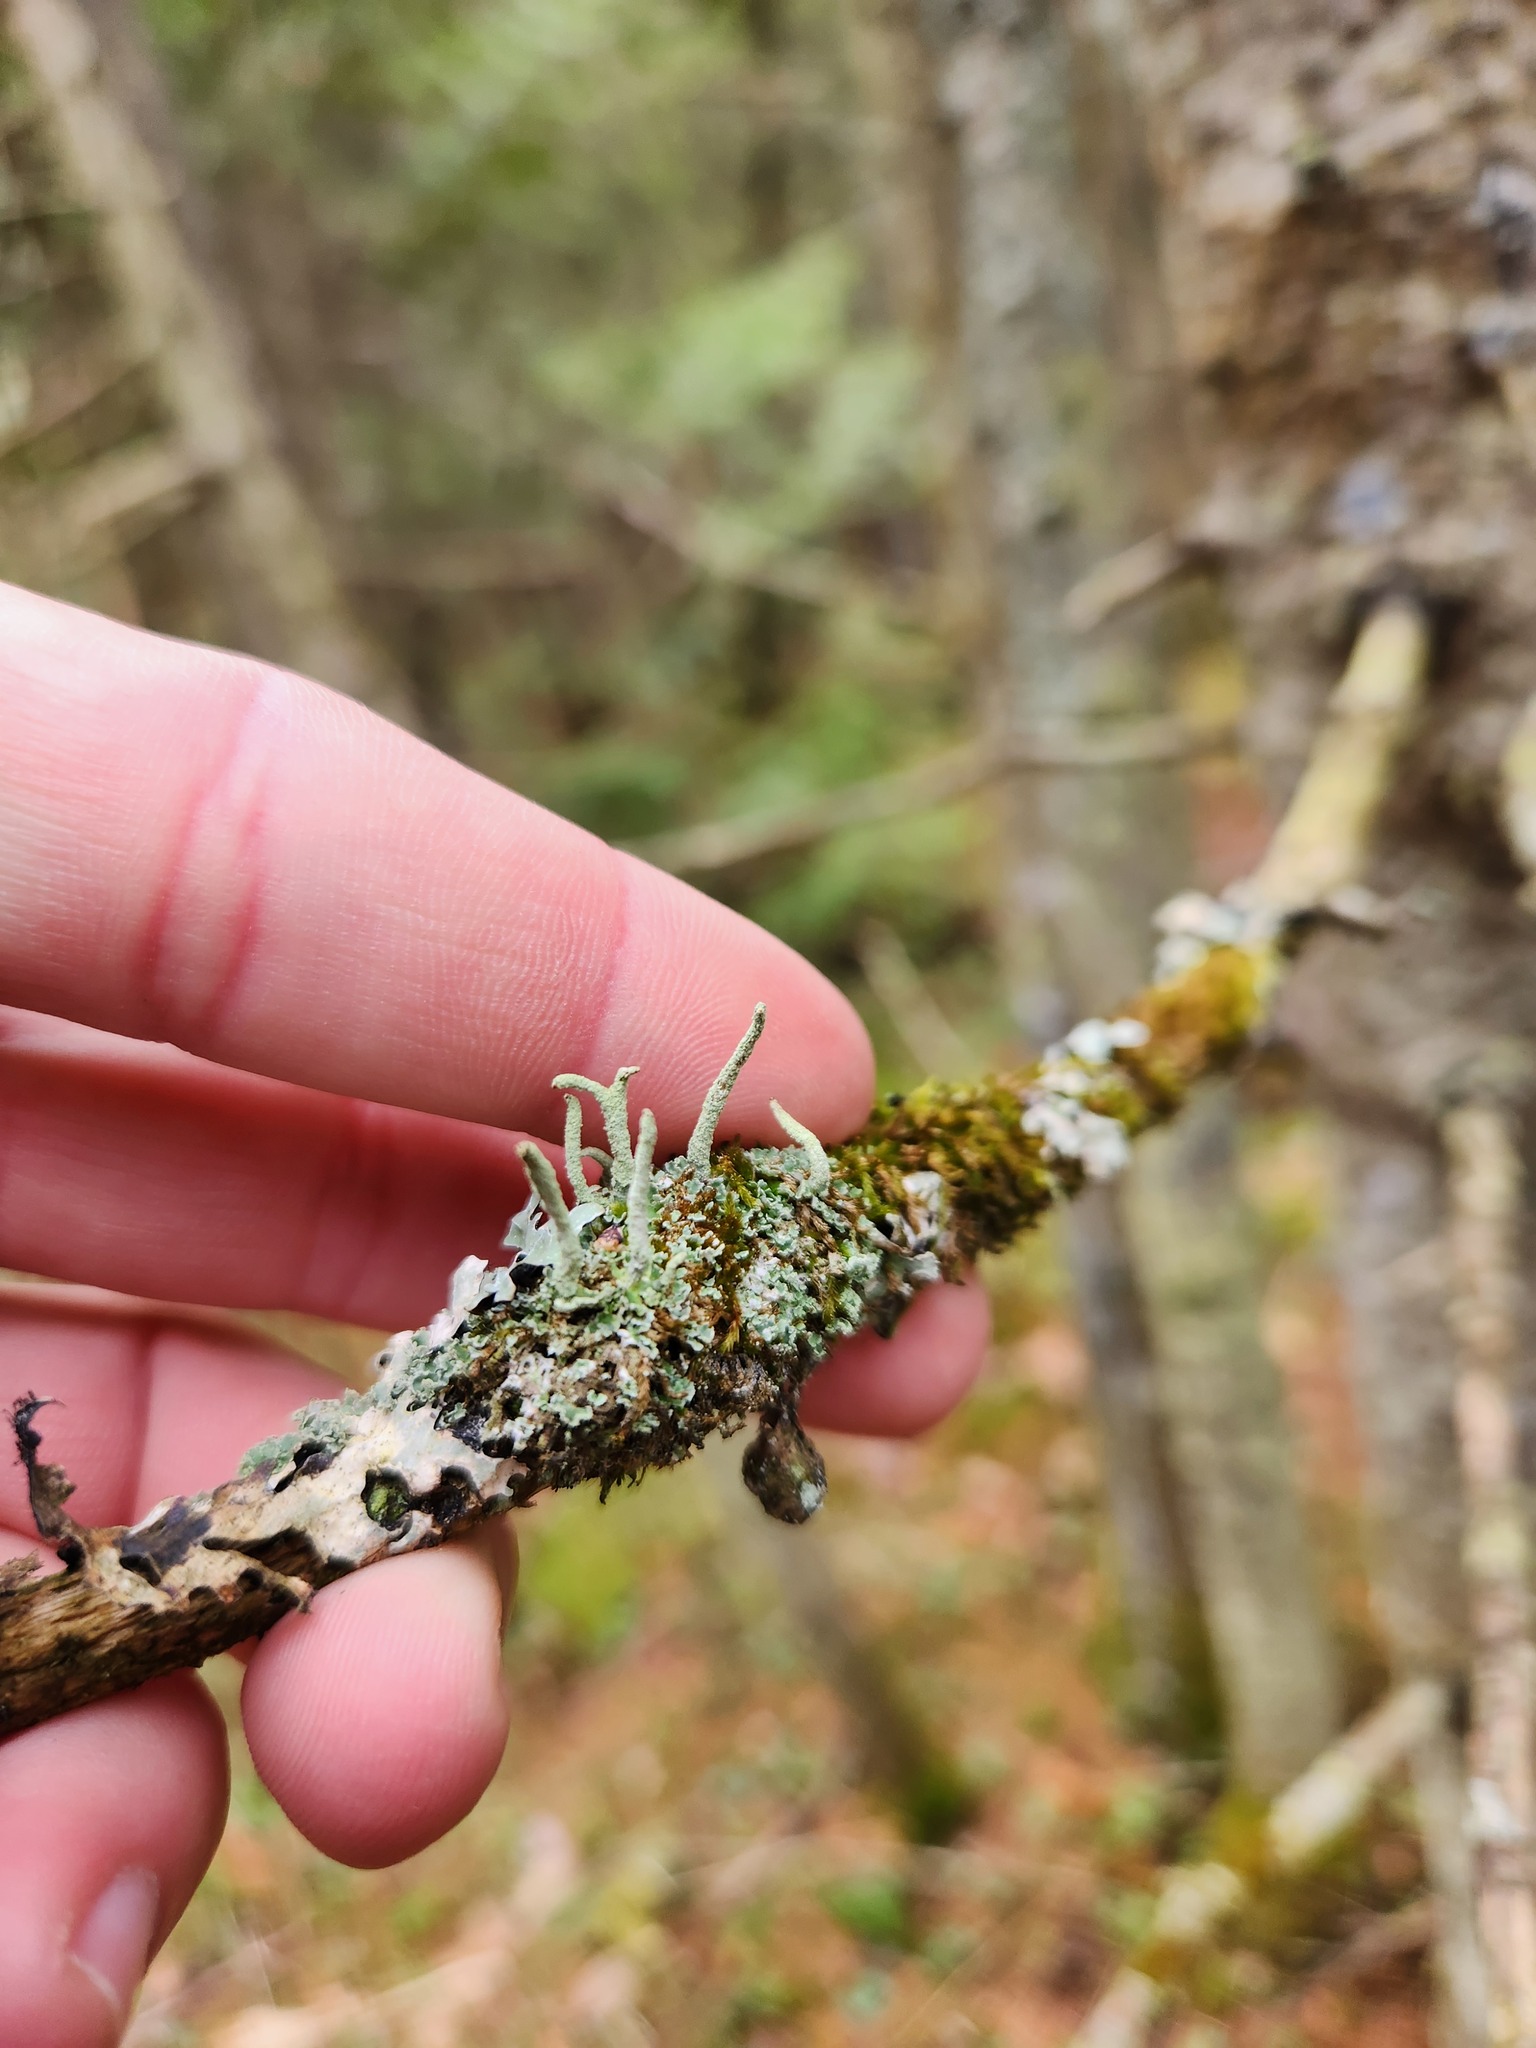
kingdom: Fungi
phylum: Ascomycota
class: Lecanoromycetes
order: Lecanorales
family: Cladoniaceae
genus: Cladonia
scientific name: Cladonia coniocraea
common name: Common powderhorn
